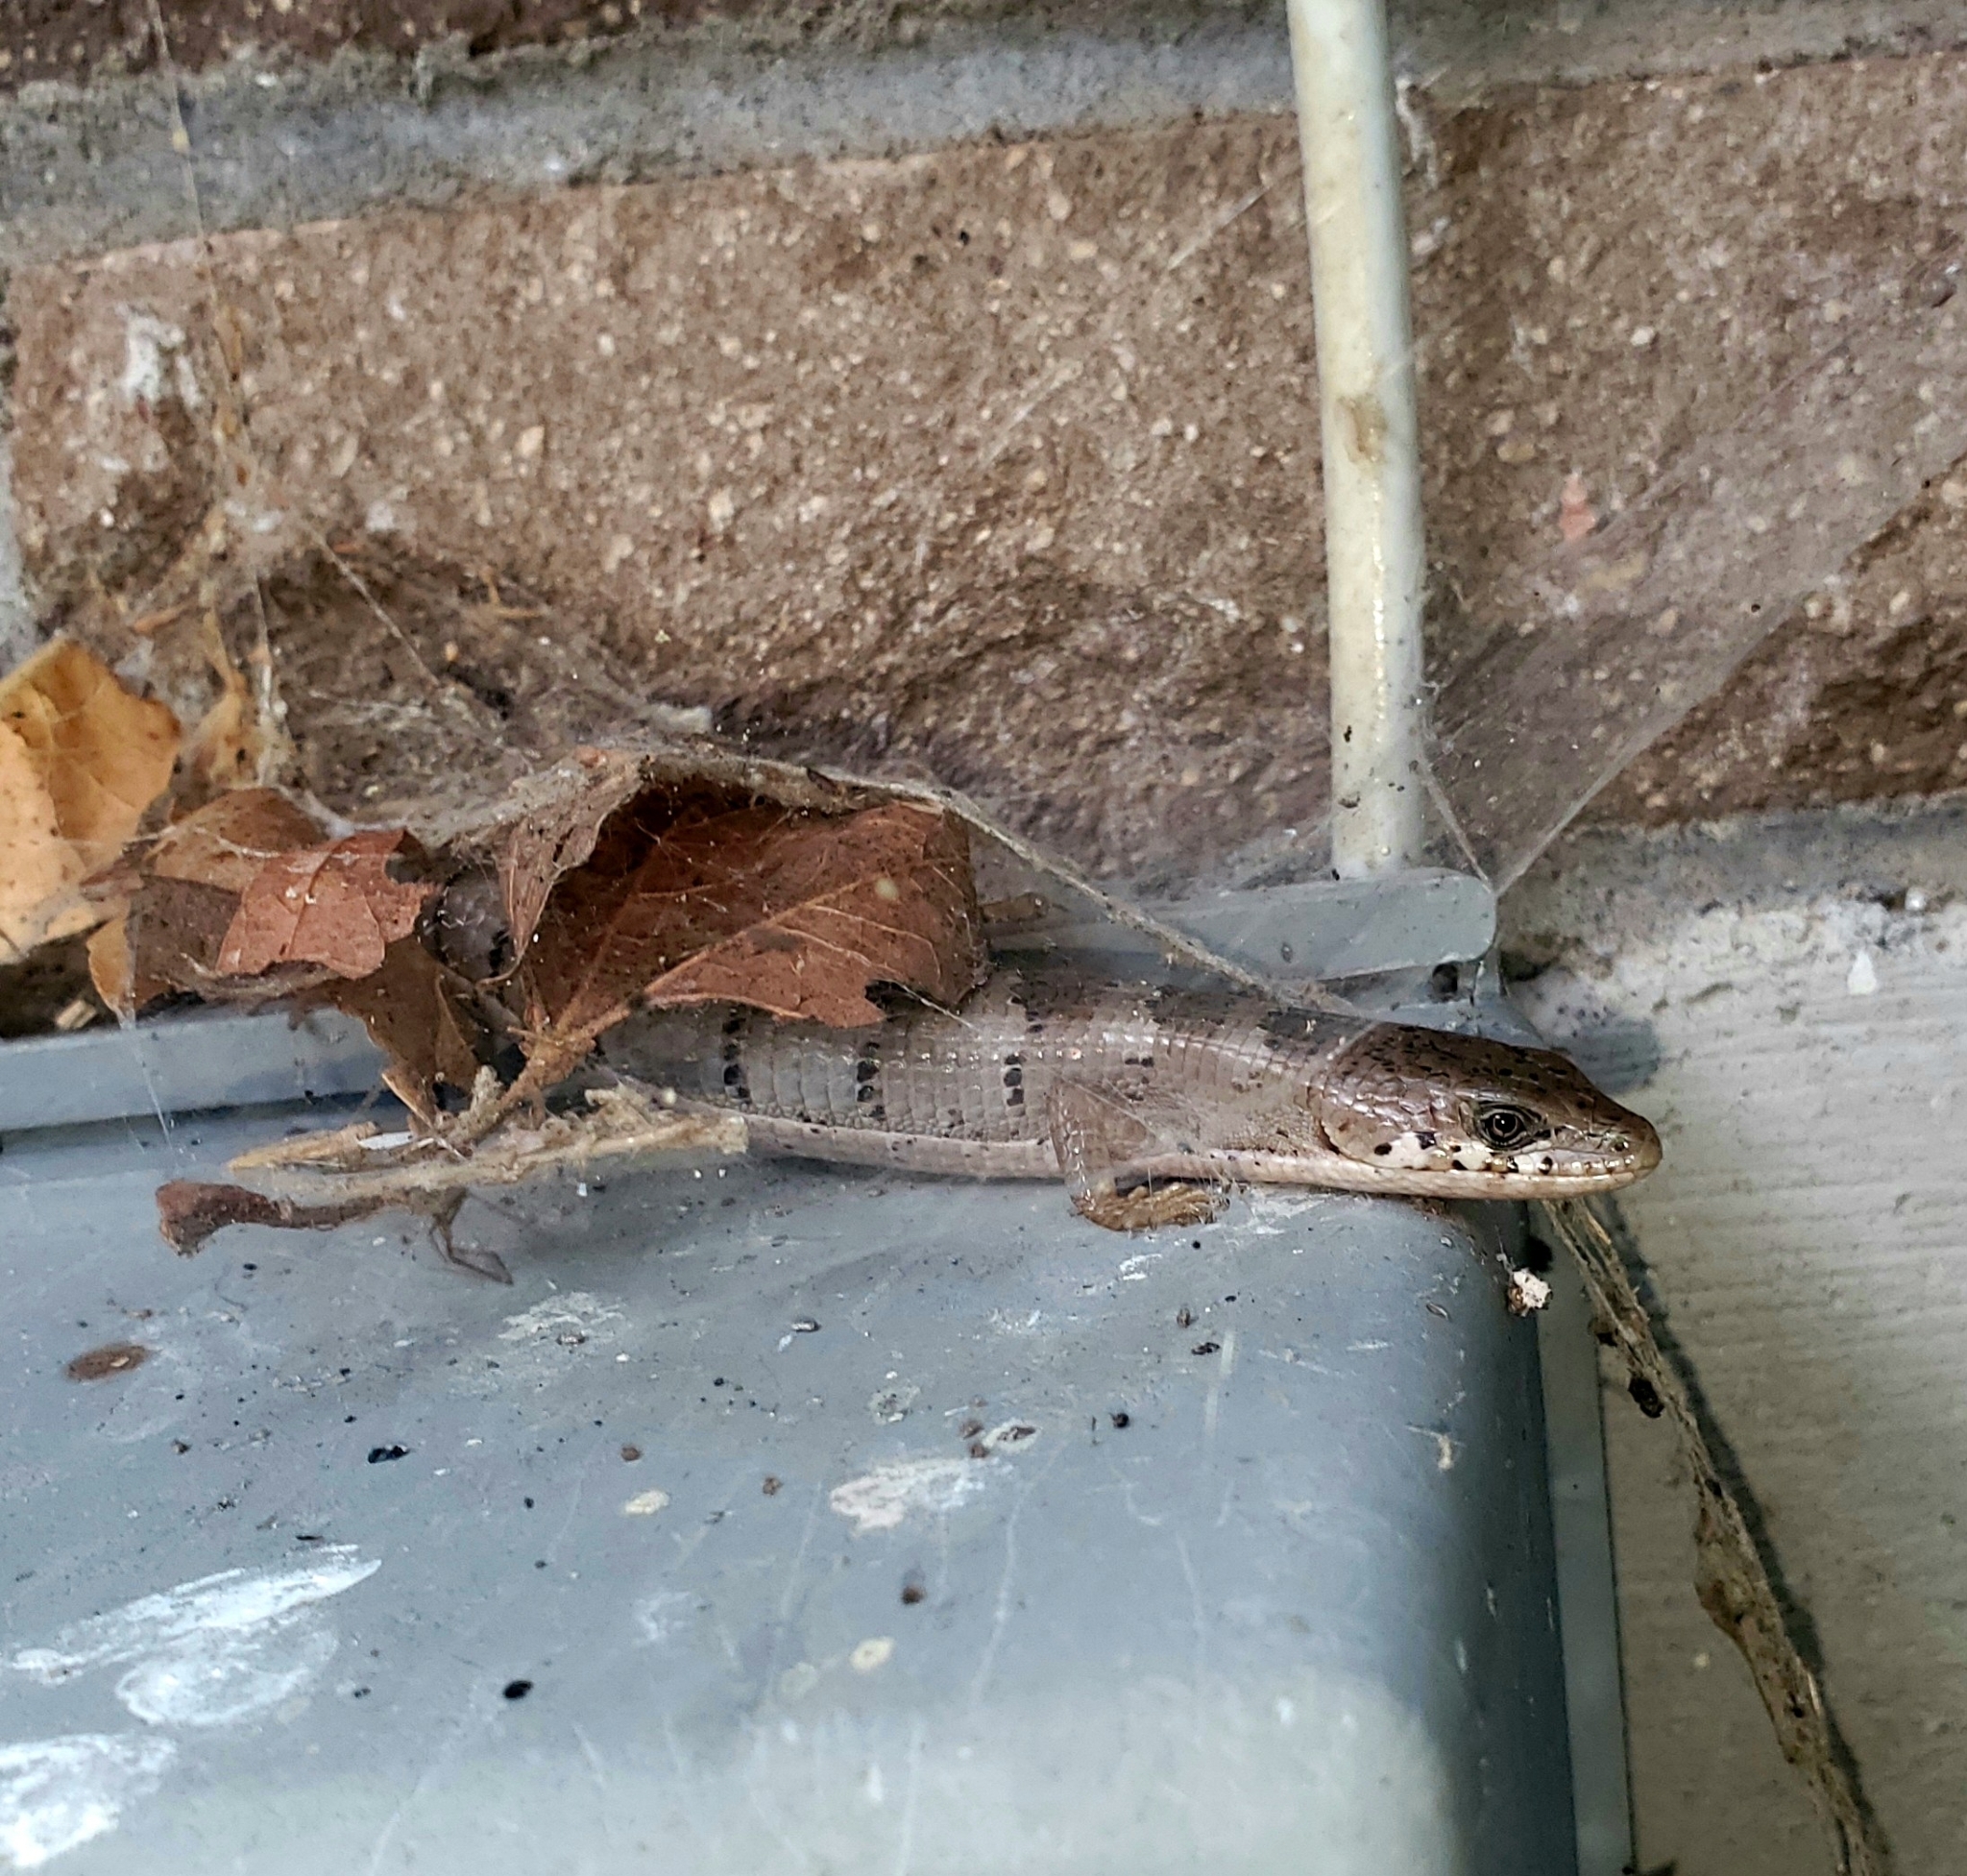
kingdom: Animalia
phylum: Chordata
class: Squamata
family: Anguidae
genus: Elgaria
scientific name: Elgaria kingii
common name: Madrean alligator lizard
